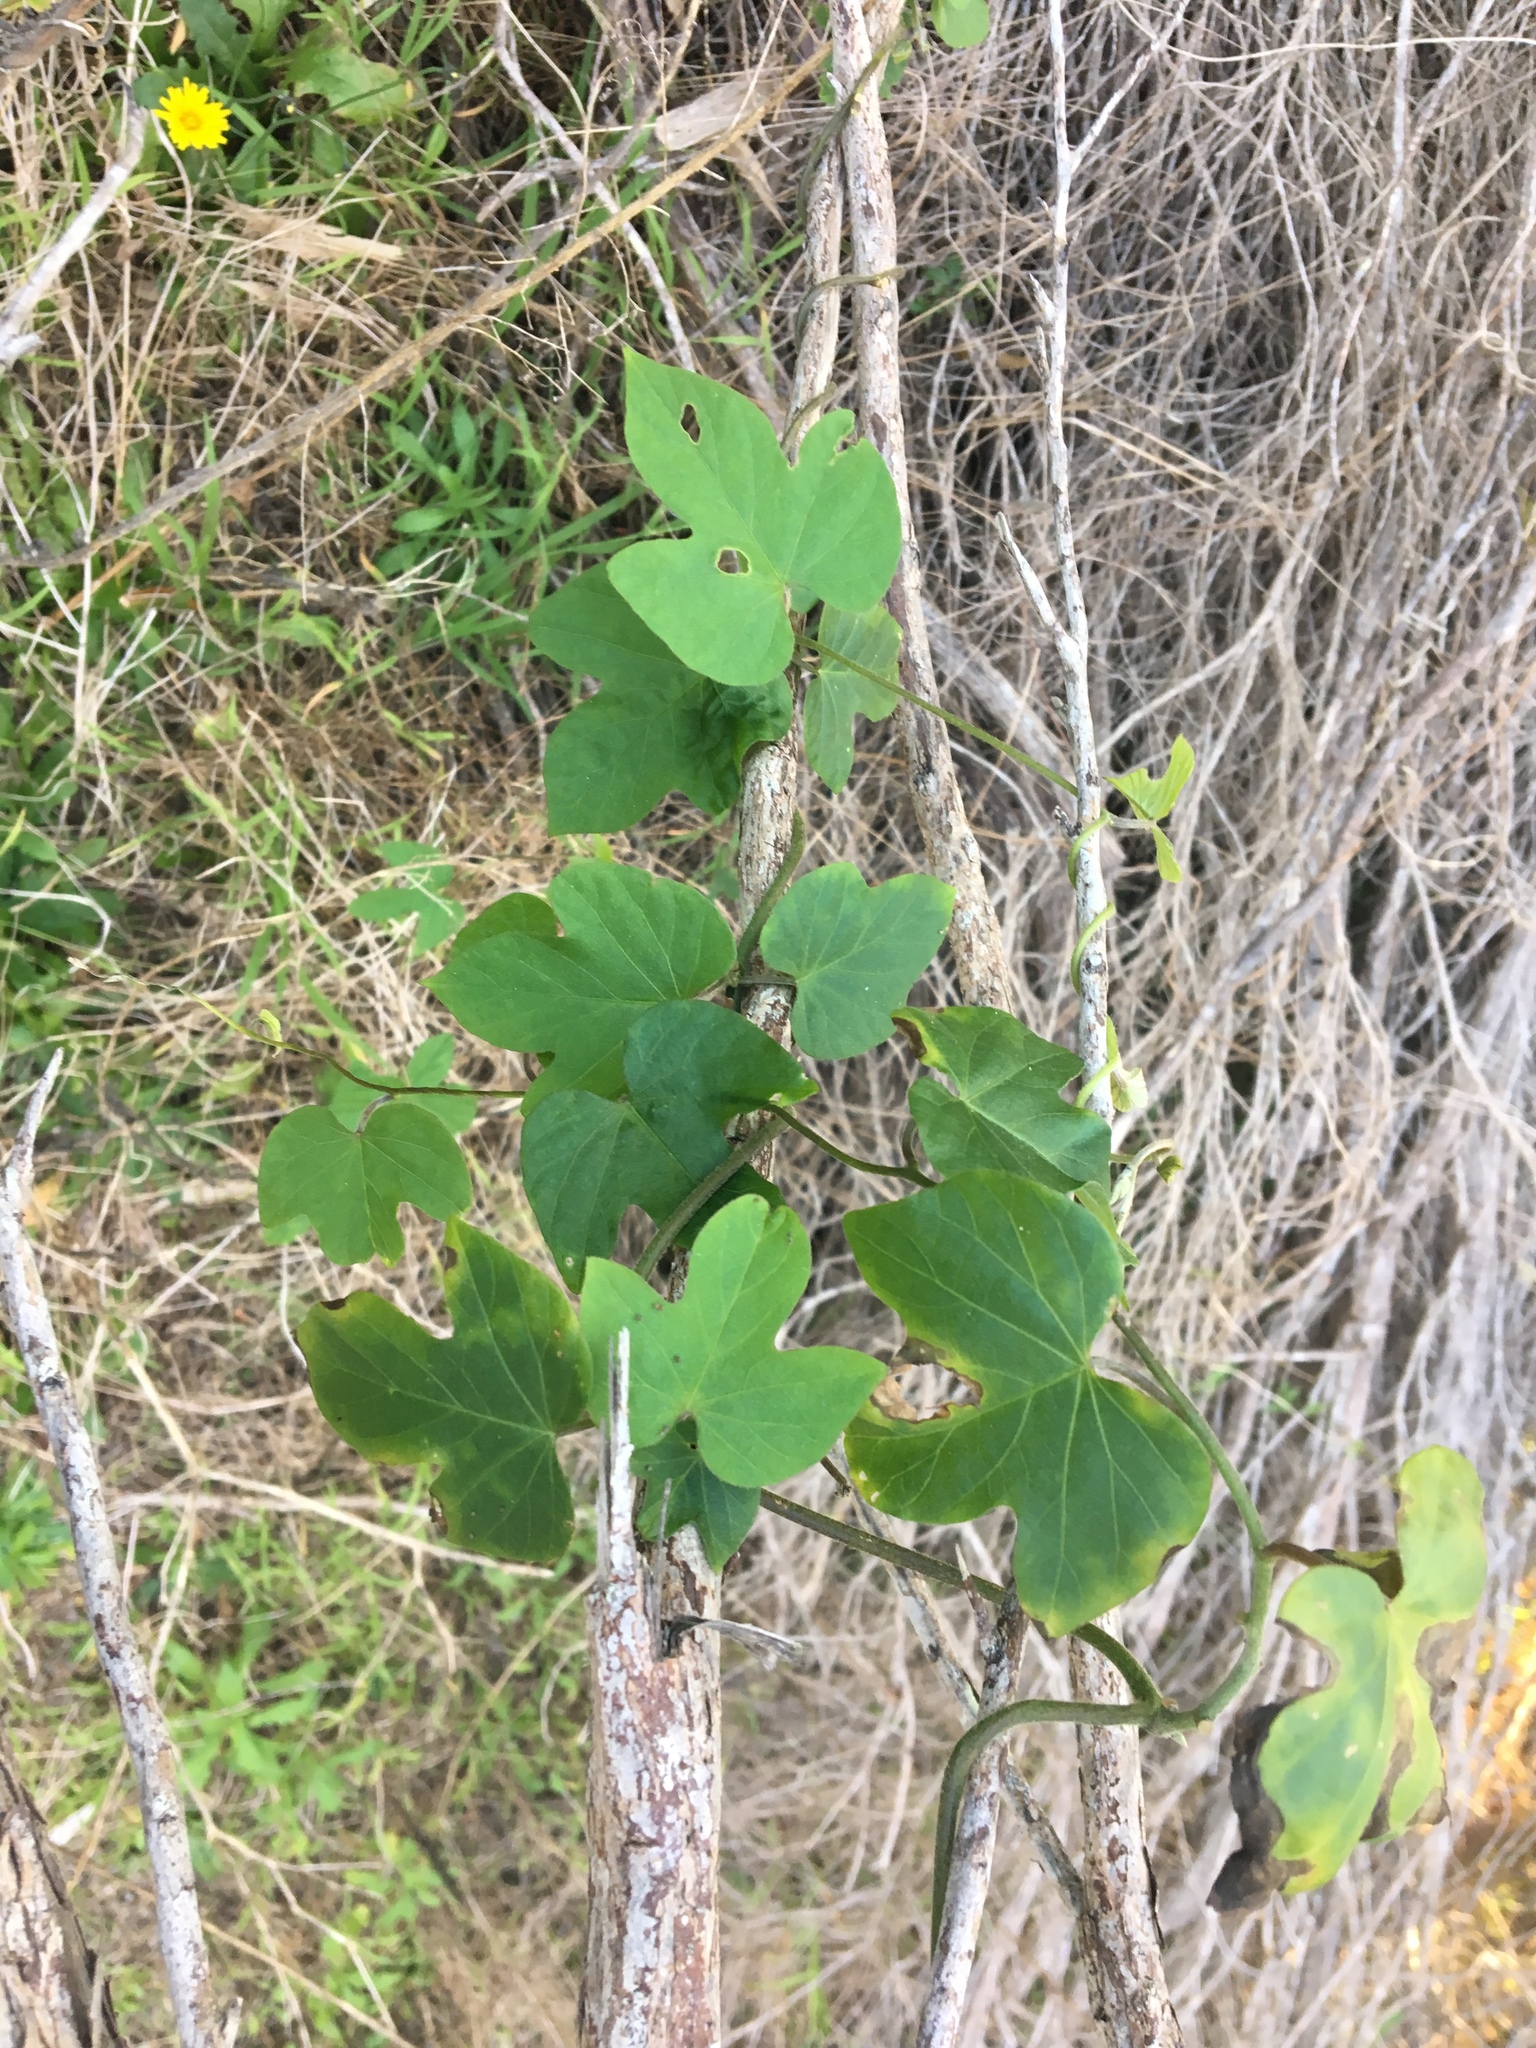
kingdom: Plantae
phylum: Tracheophyta
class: Magnoliopsida
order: Solanales
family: Convolvulaceae
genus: Ipomoea
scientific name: Ipomoea indica
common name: Blue dawnflower
